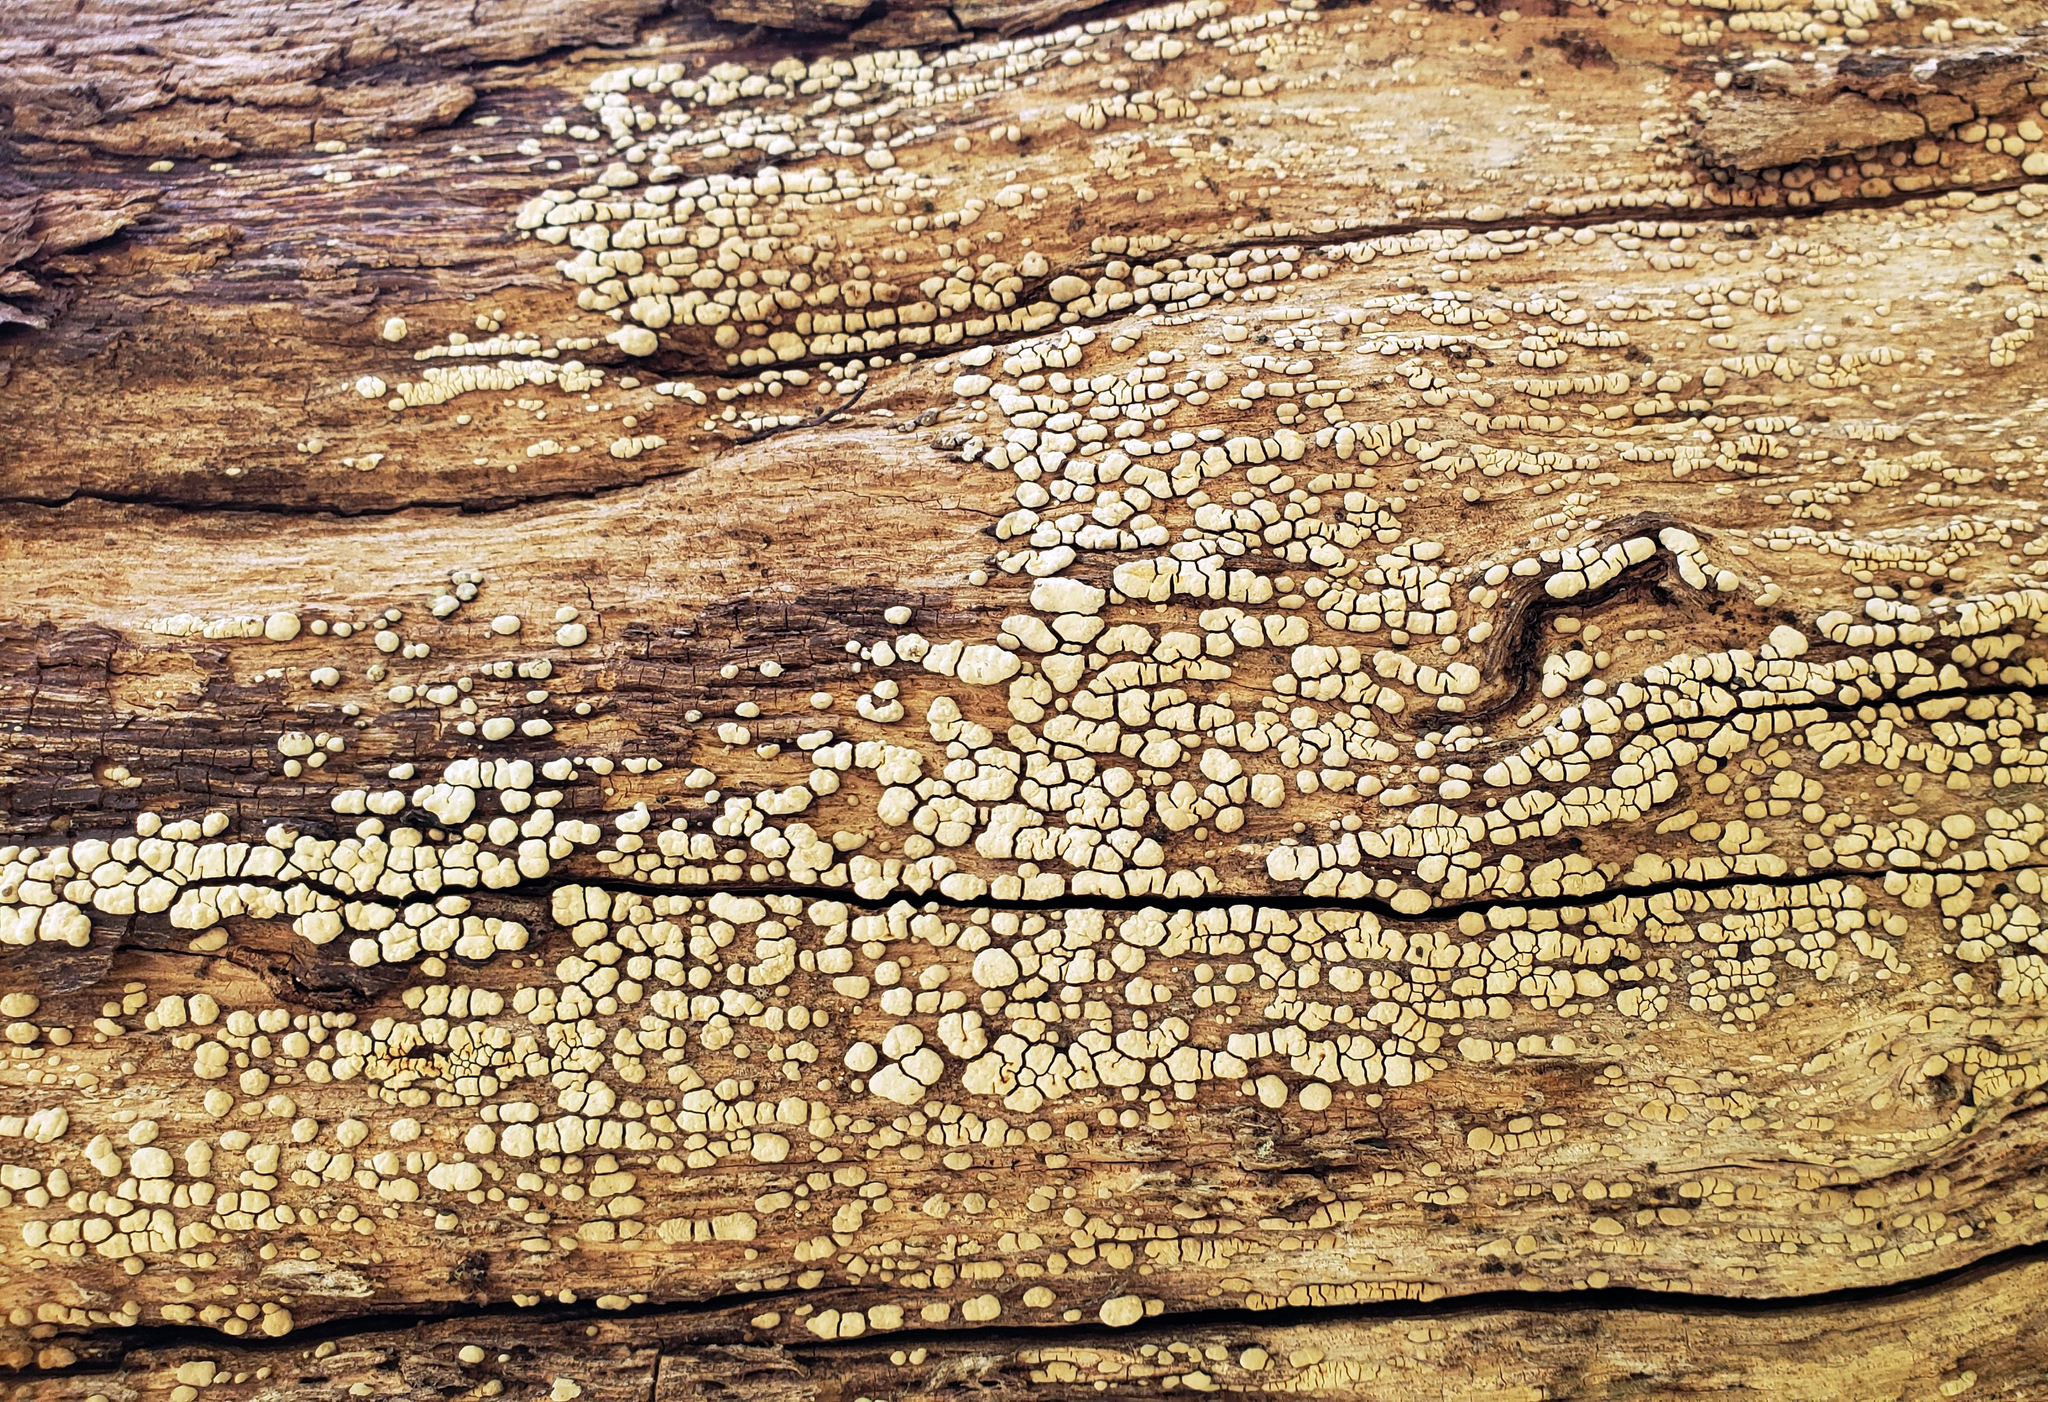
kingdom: Fungi
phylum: Basidiomycota
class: Agaricomycetes
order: Russulales
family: Stereaceae
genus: Xylobolus
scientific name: Xylobolus frustulatus
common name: Ceramic parchment
